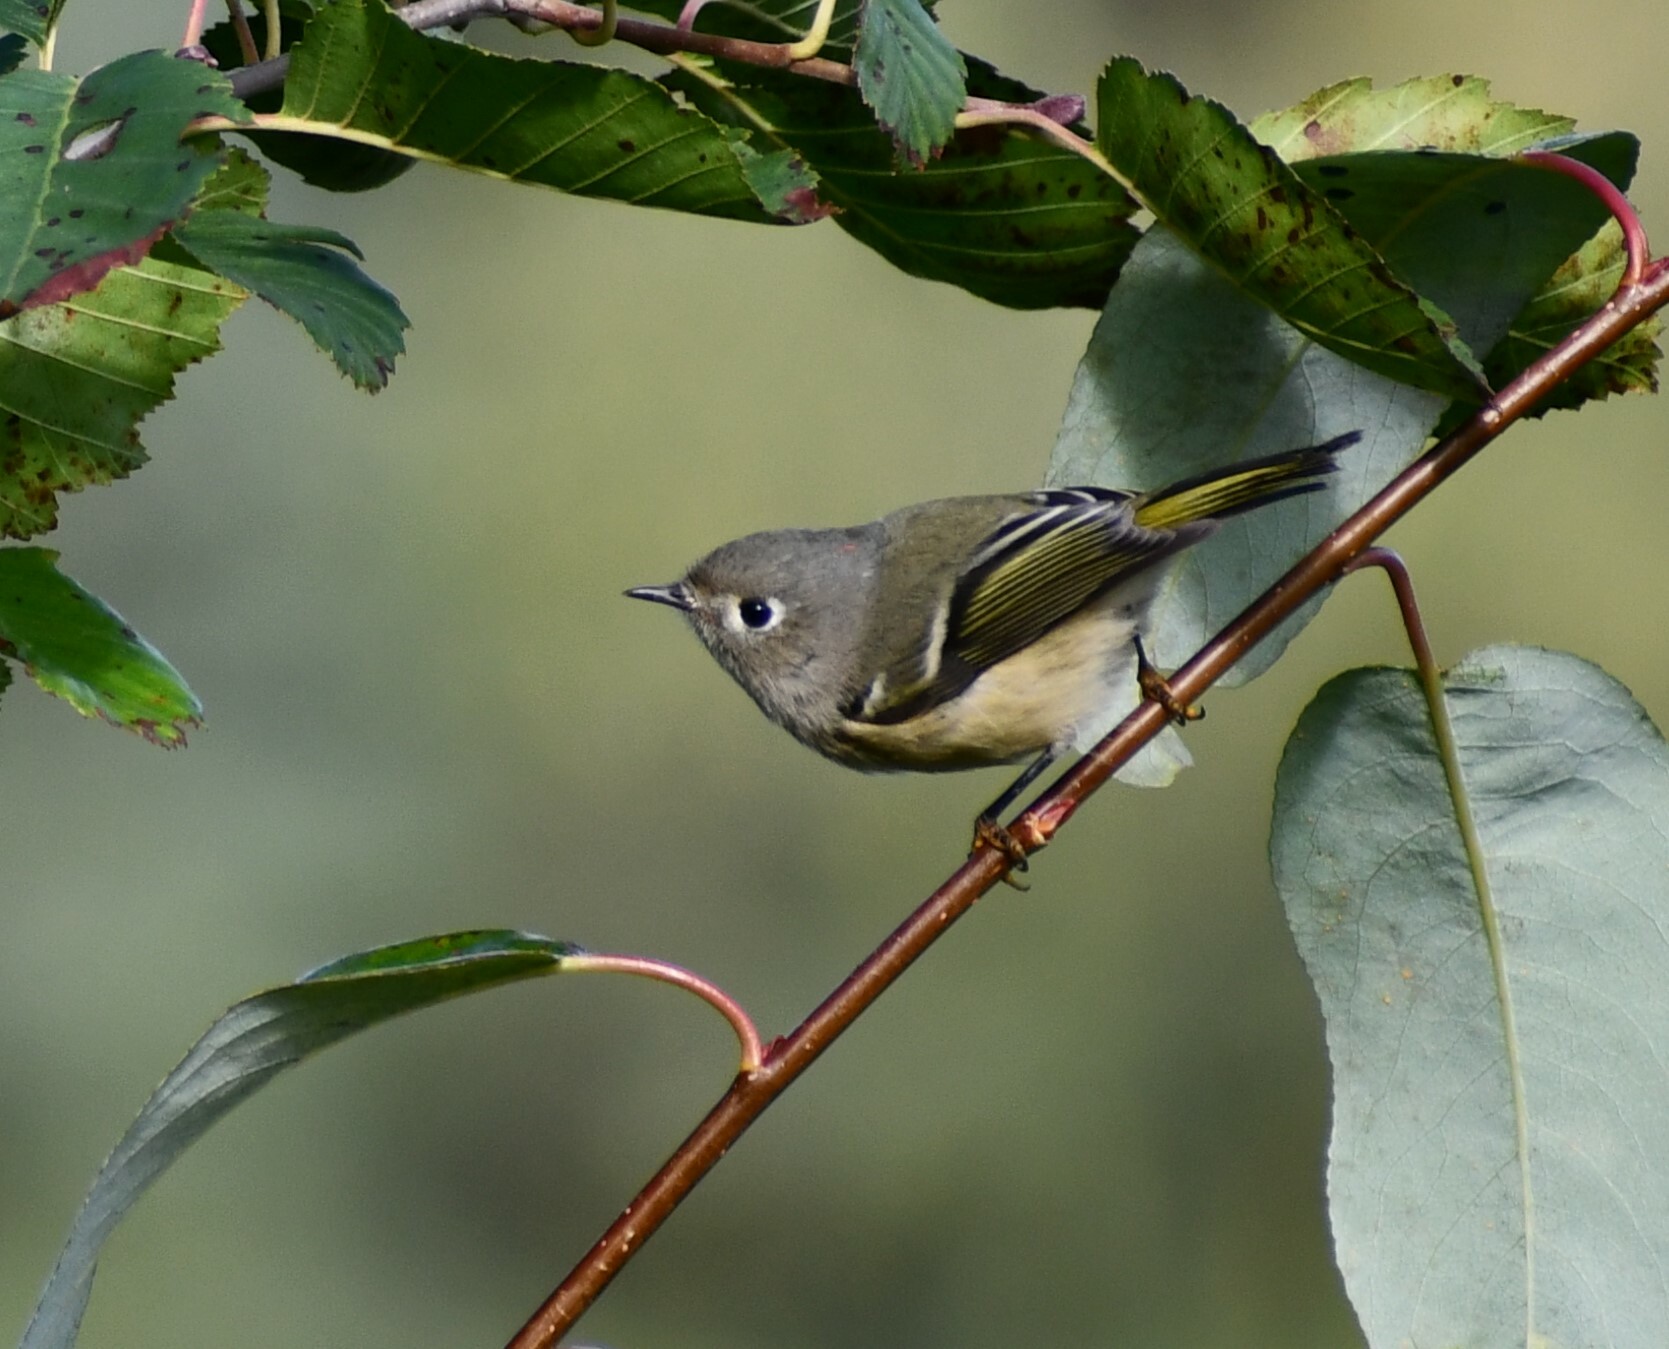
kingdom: Animalia
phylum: Chordata
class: Aves
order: Passeriformes
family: Regulidae
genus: Regulus
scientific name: Regulus calendula
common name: Ruby-crowned kinglet
